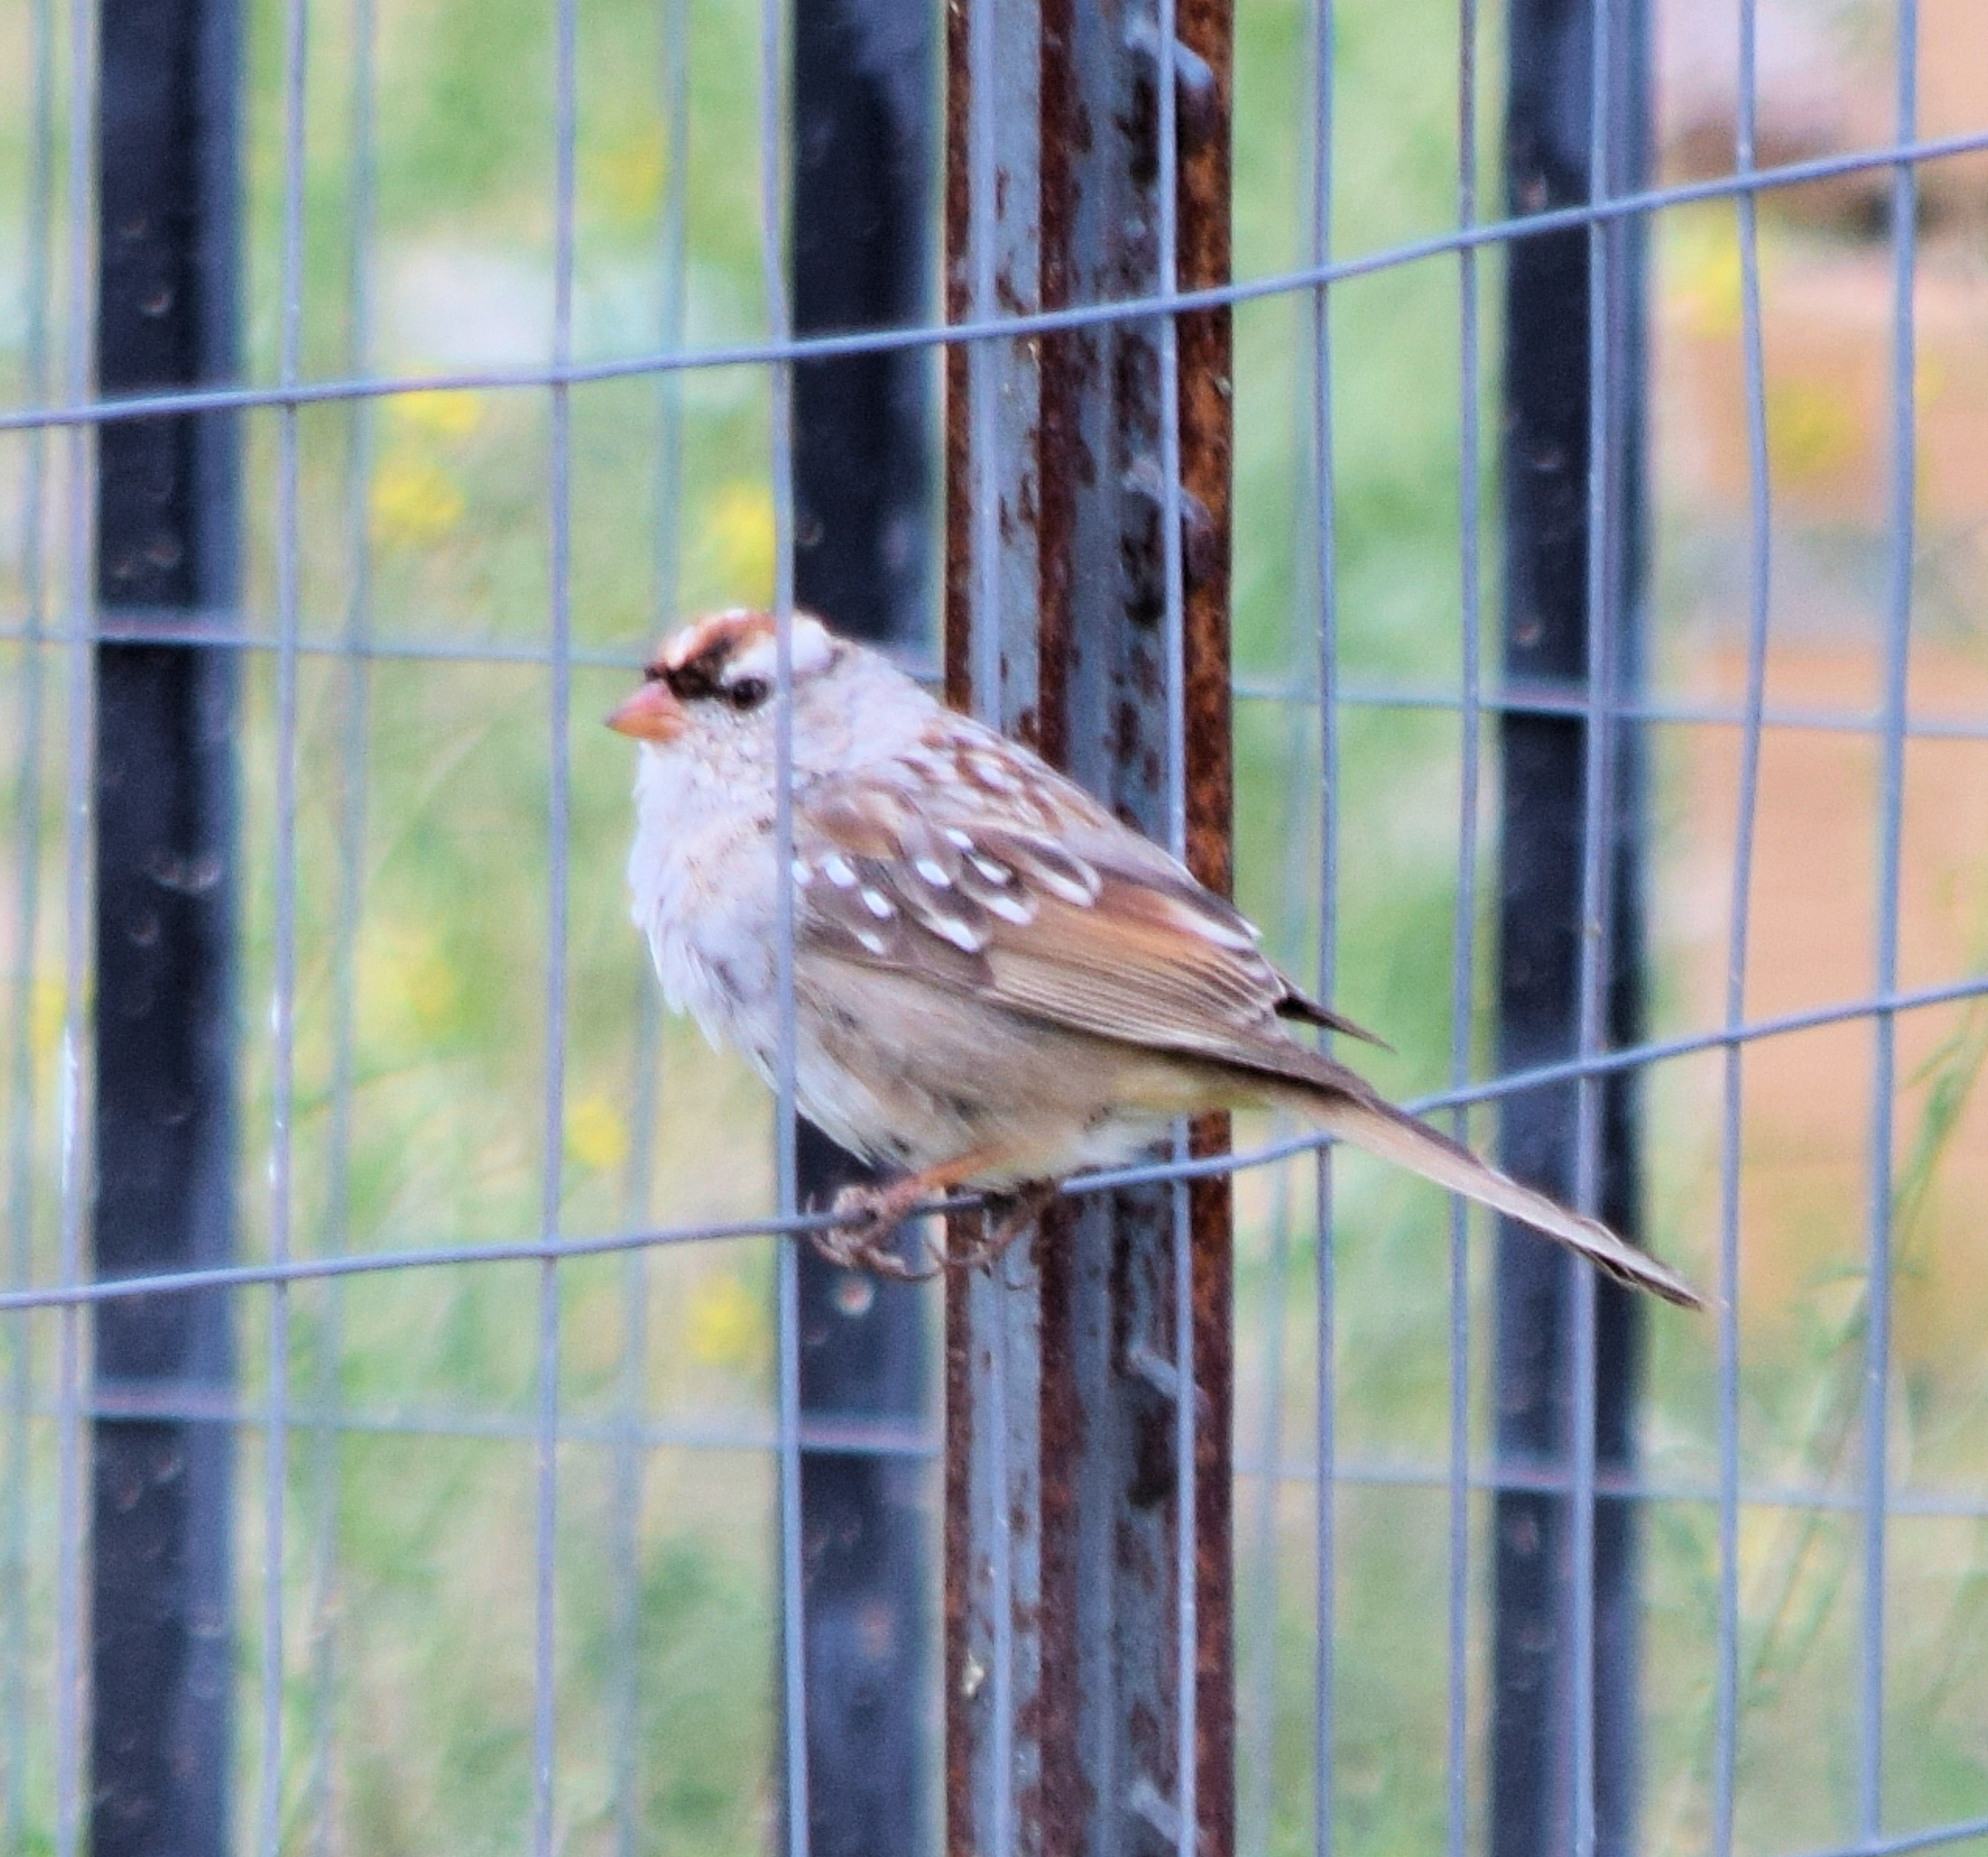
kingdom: Animalia
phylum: Chordata
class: Aves
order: Passeriformes
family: Passerellidae
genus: Zonotrichia
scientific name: Zonotrichia leucophrys
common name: White-crowned sparrow
